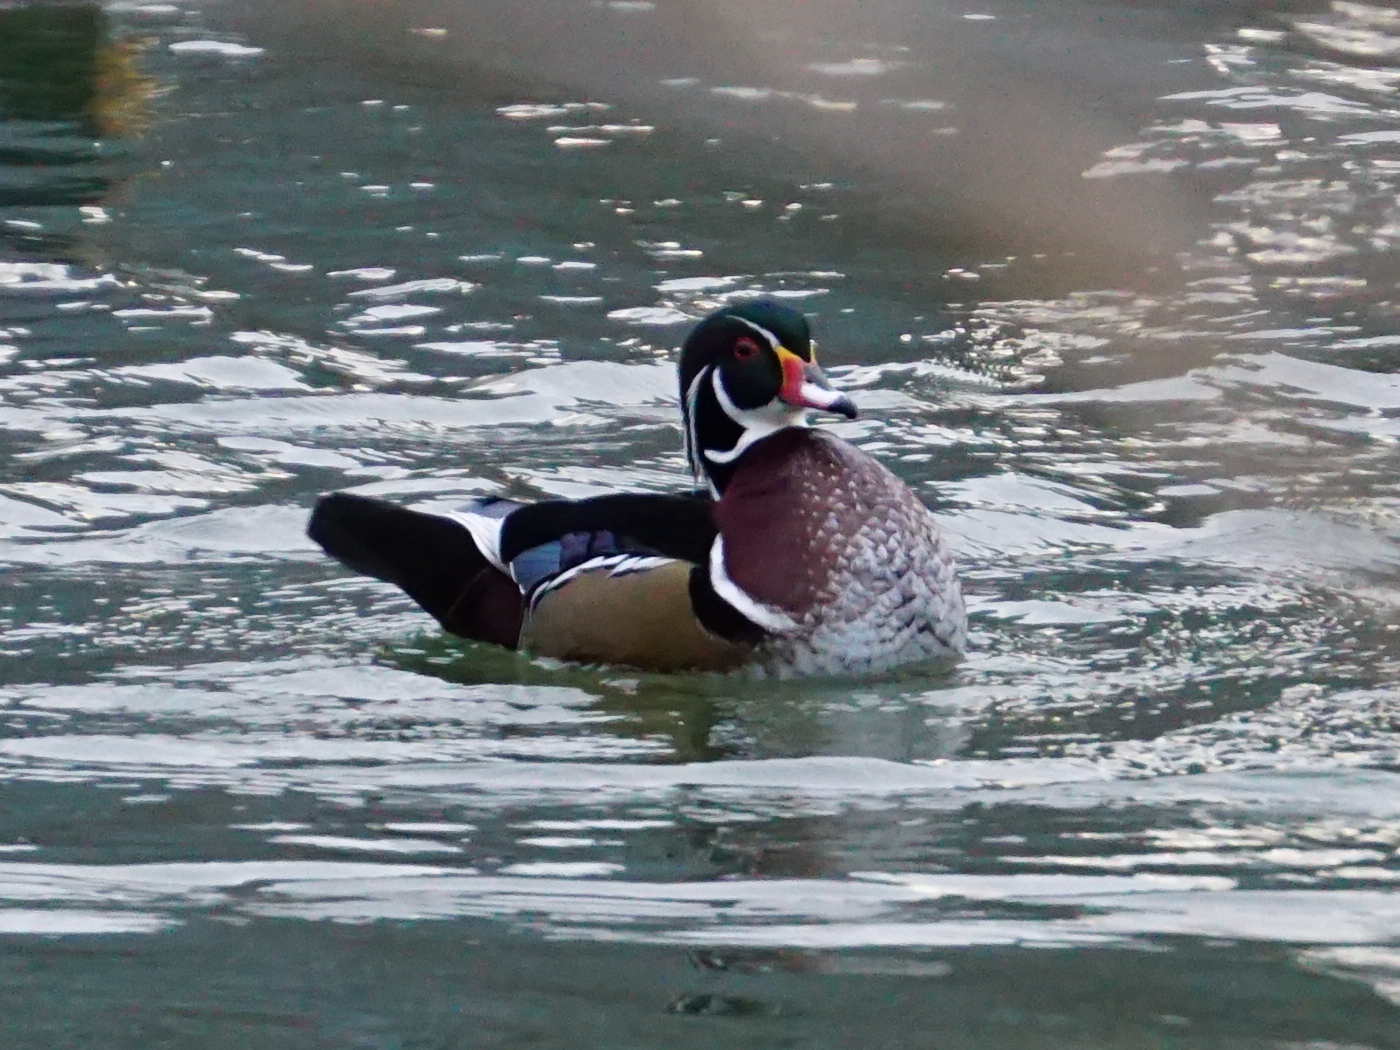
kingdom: Animalia
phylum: Chordata
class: Aves
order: Anseriformes
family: Anatidae
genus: Aix
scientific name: Aix sponsa
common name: Wood duck
